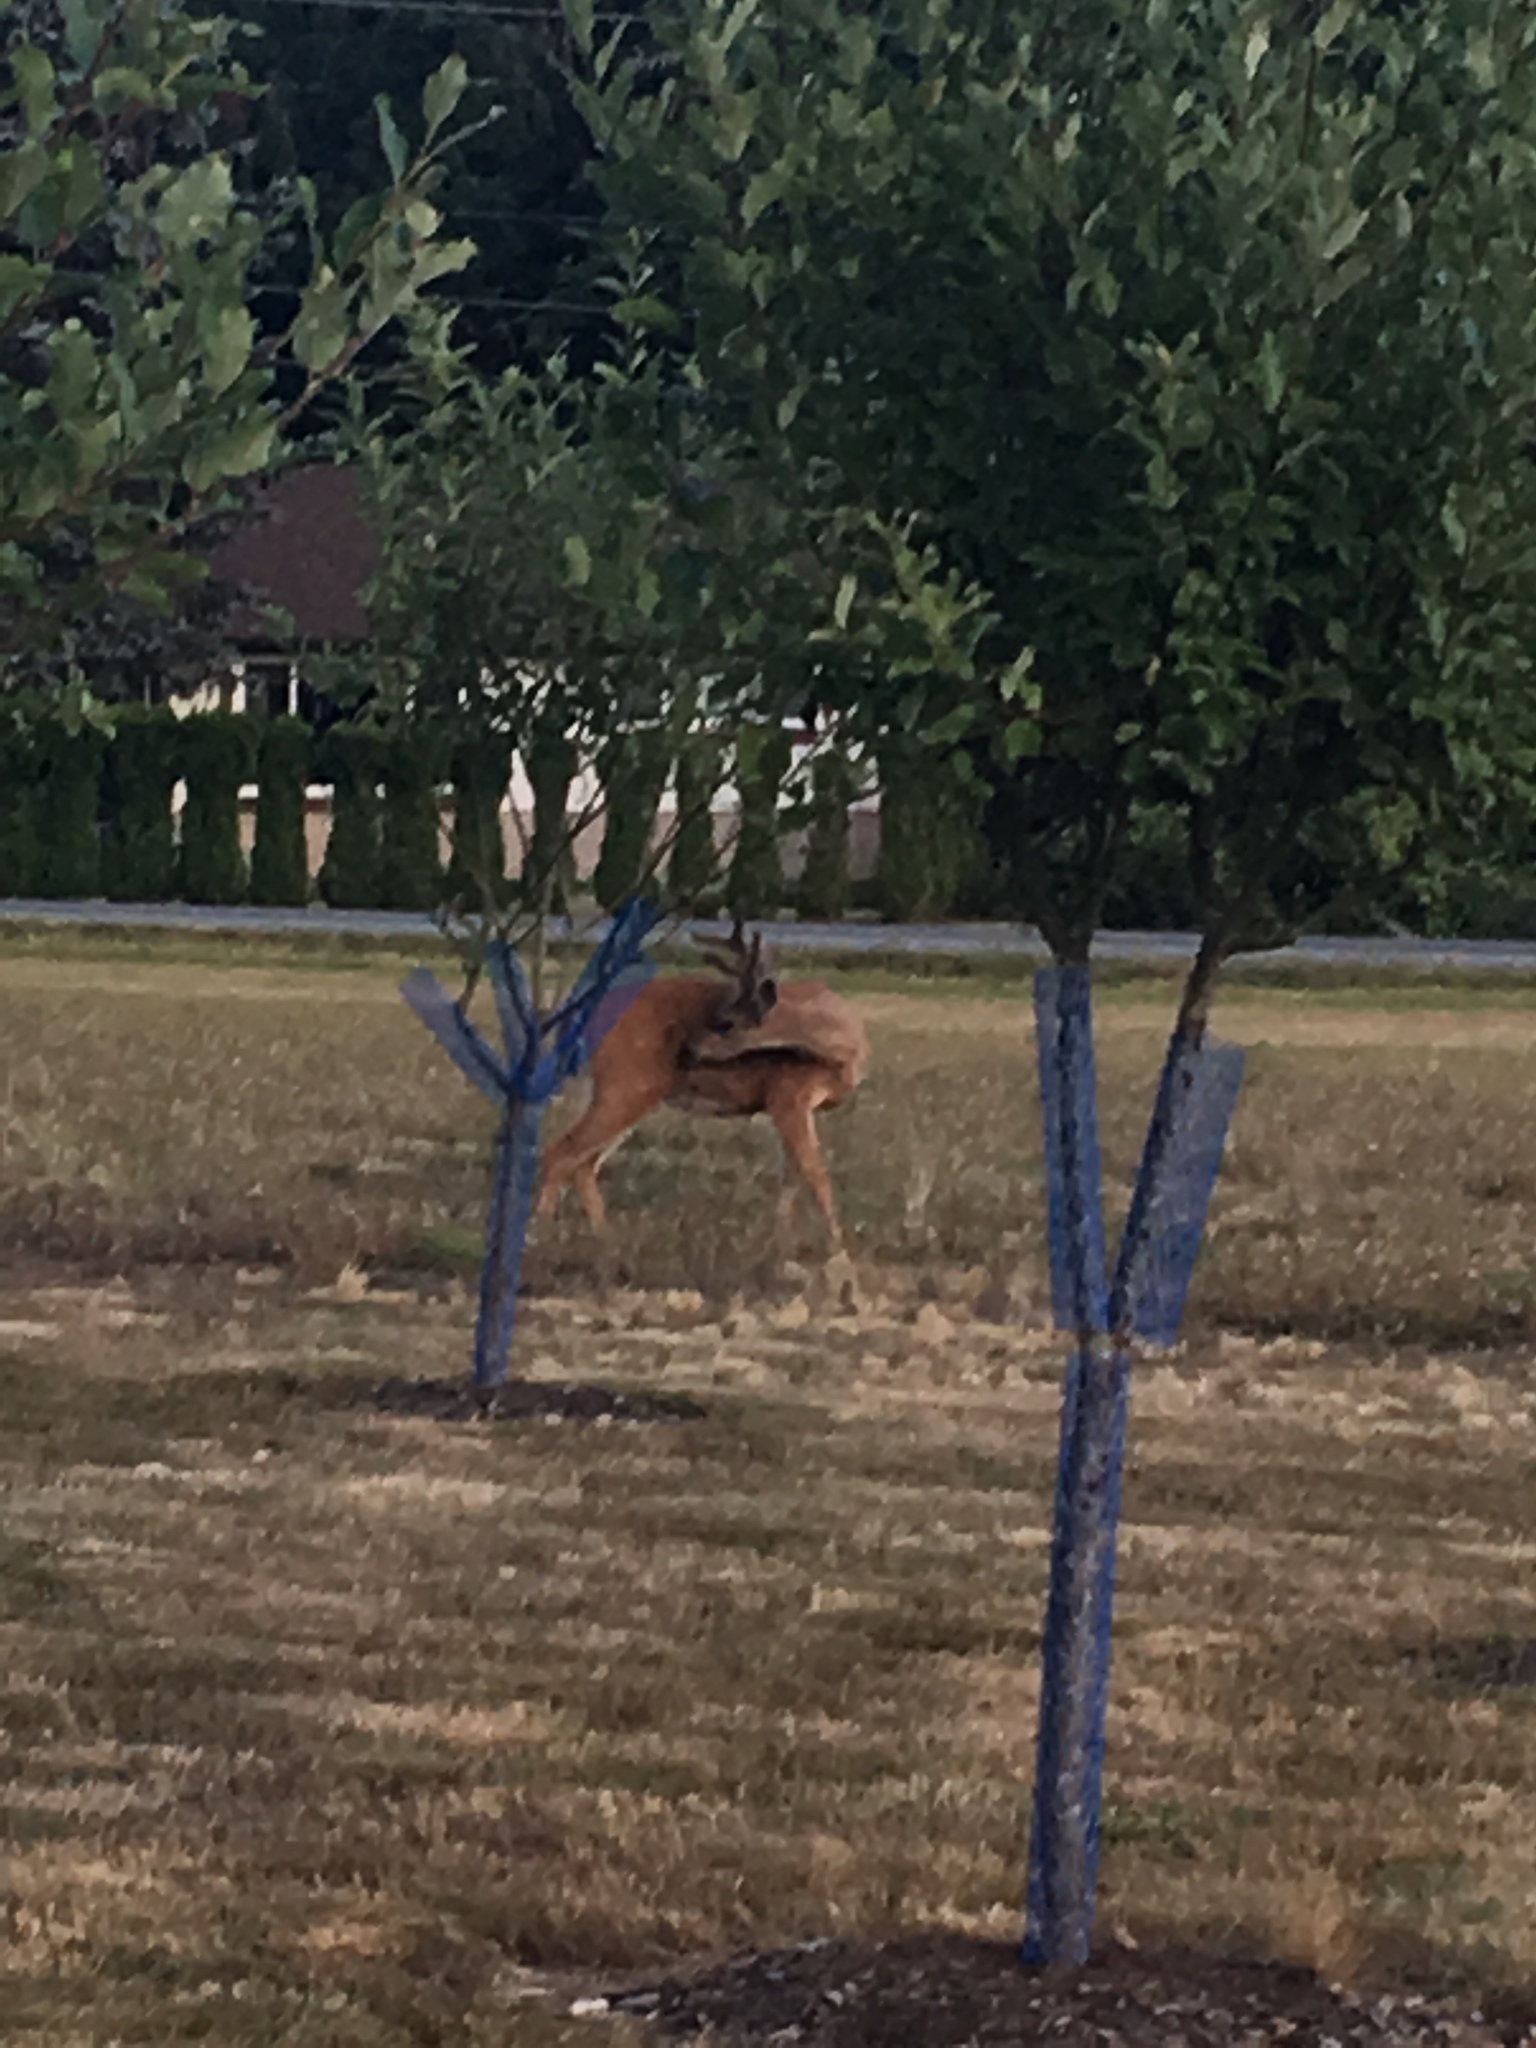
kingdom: Animalia
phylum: Chordata
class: Mammalia
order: Artiodactyla
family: Cervidae
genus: Odocoileus
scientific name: Odocoileus hemionus
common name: Mule deer
